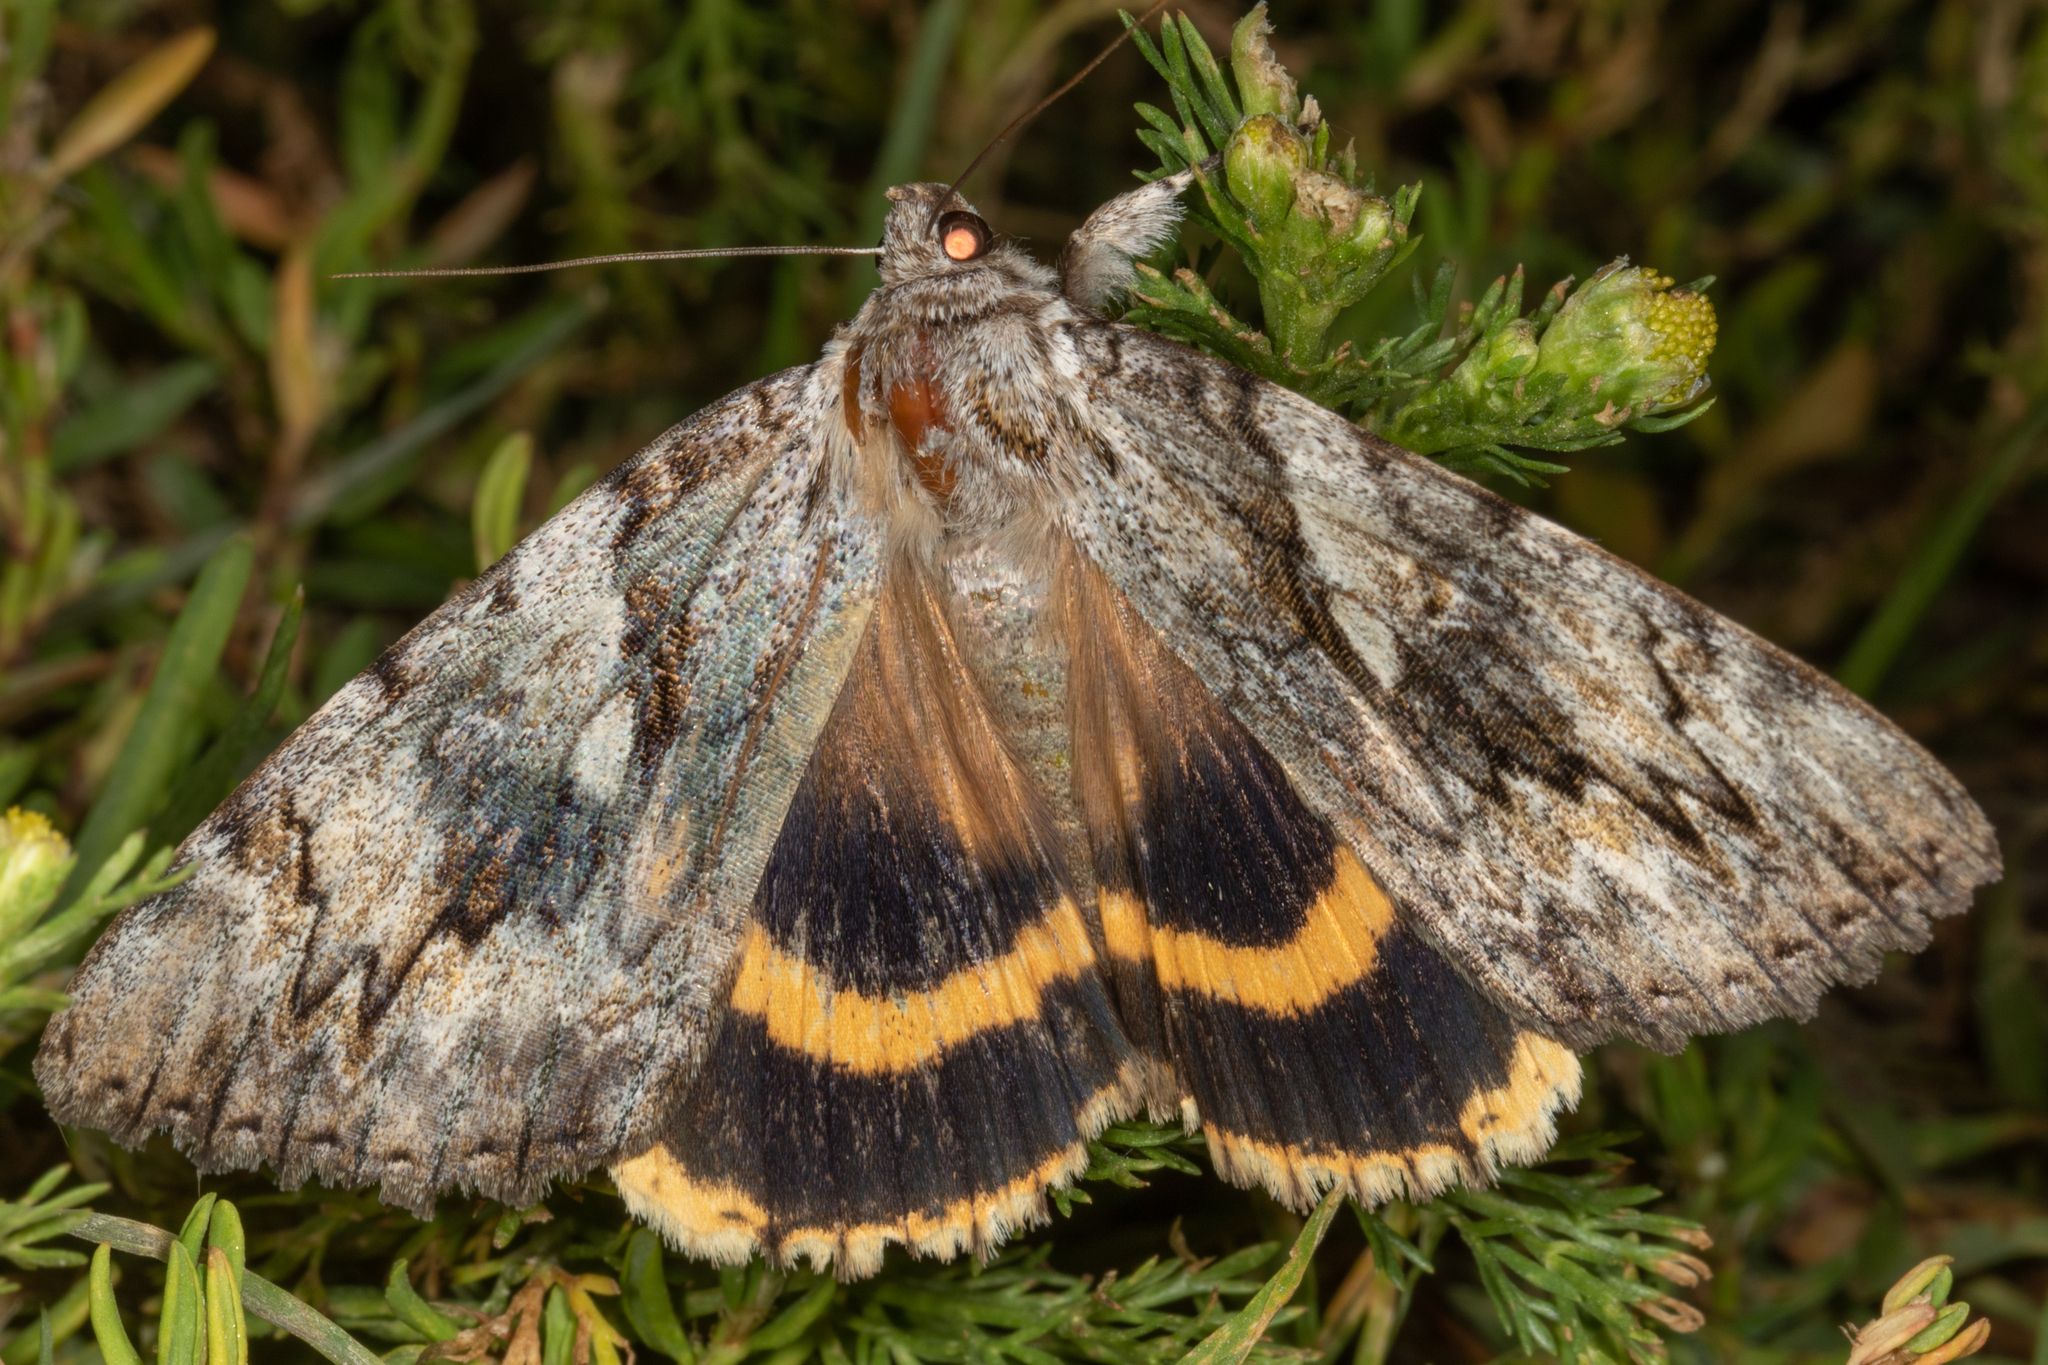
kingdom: Animalia
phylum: Arthropoda
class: Insecta
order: Lepidoptera
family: Erebidae
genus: Catocala
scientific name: Catocala cerogama
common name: Yellow banded underwing
